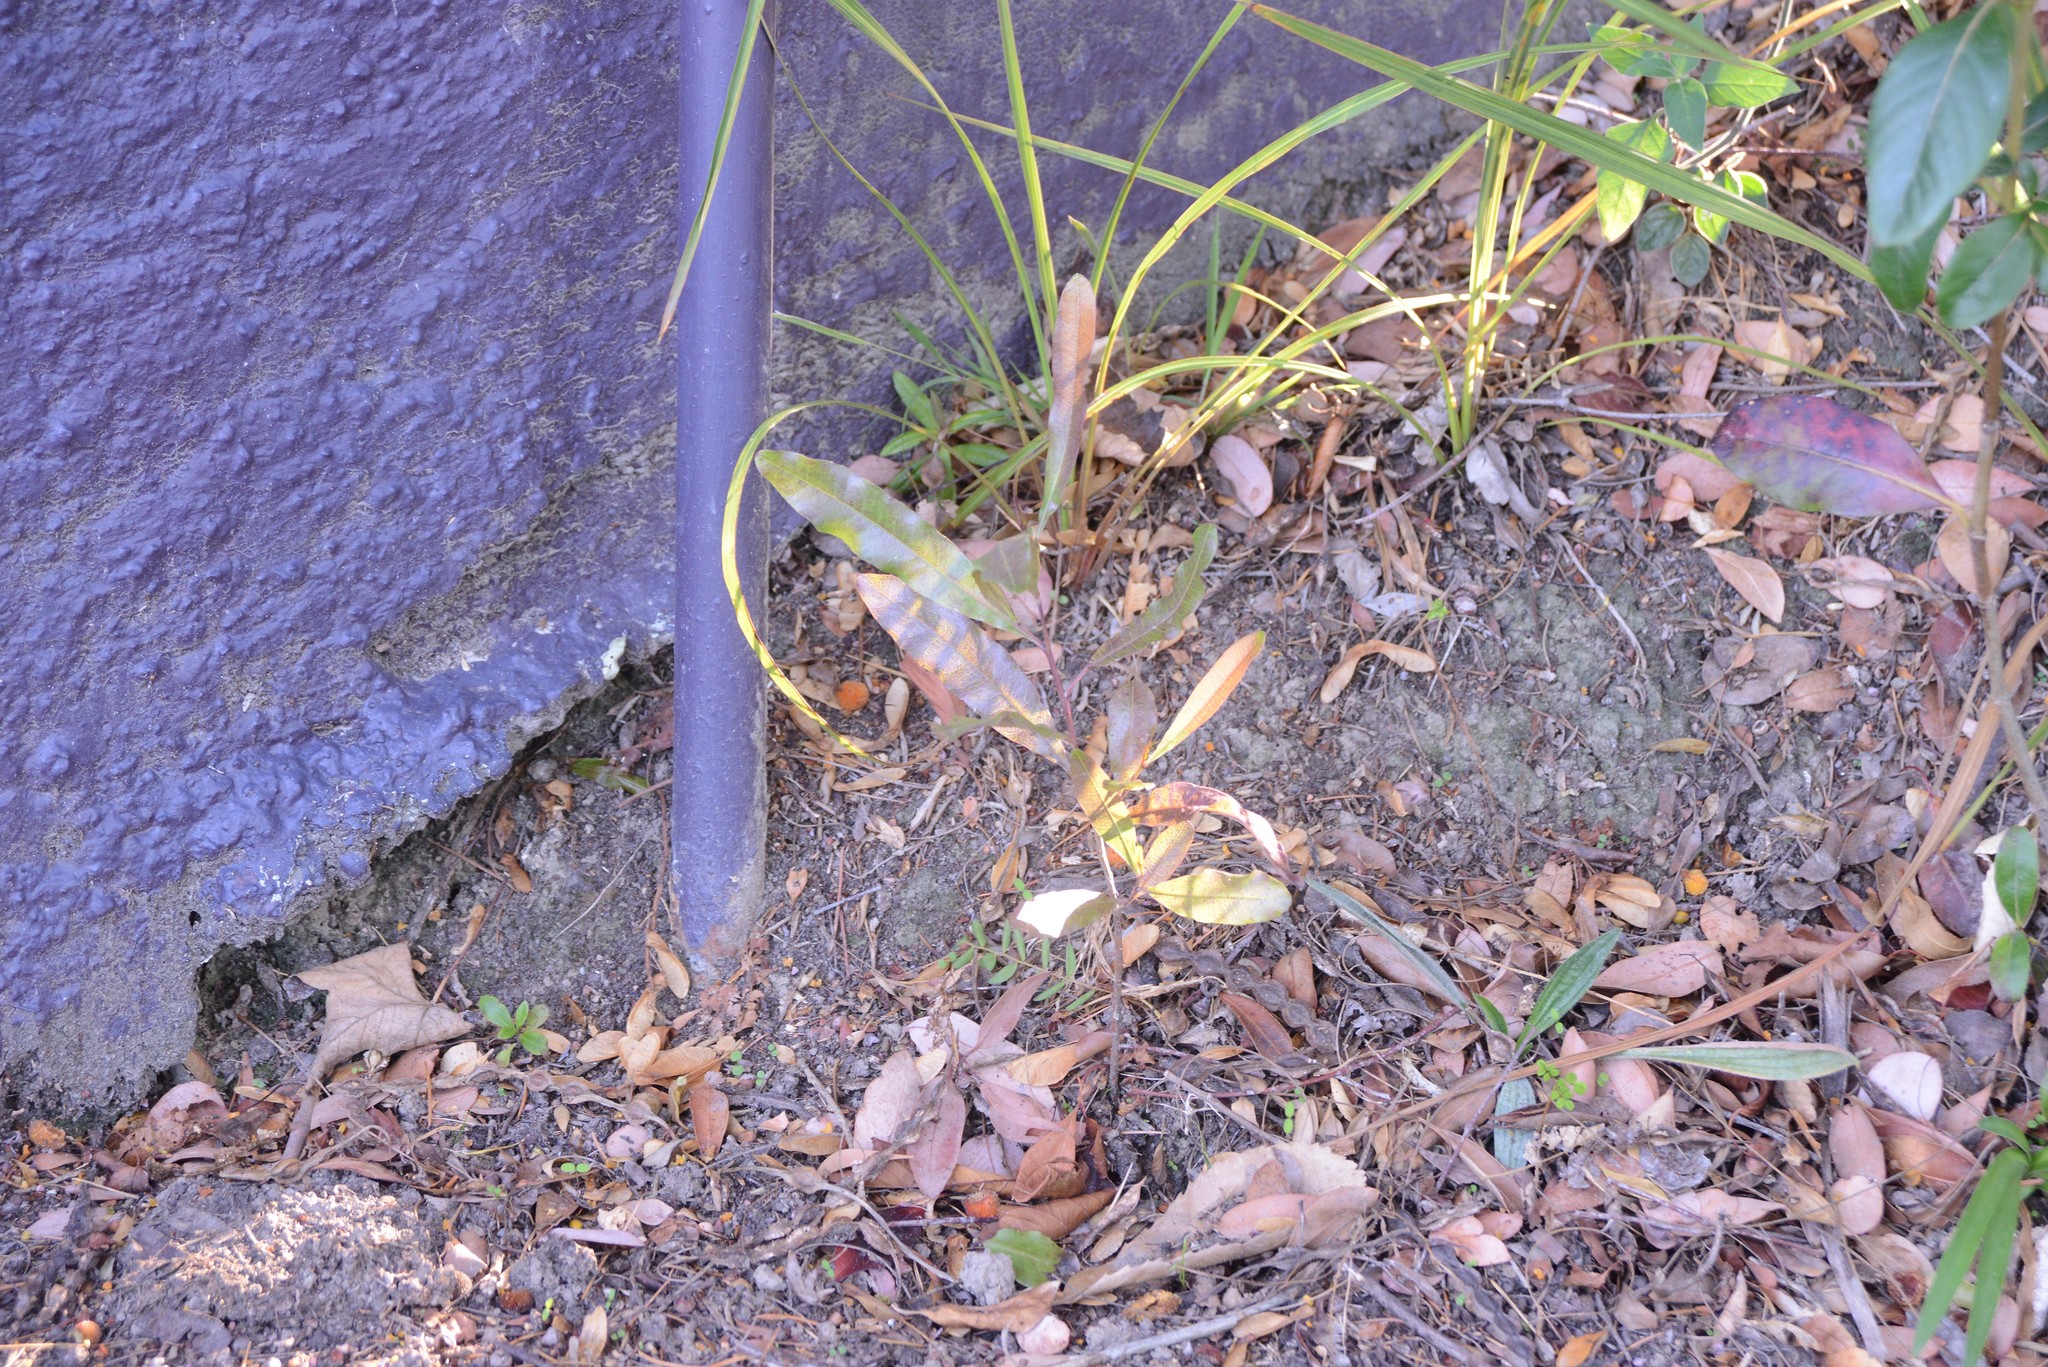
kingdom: Plantae
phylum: Tracheophyta
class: Magnoliopsida
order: Sapindales
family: Sapindaceae
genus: Dodonaea
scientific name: Dodonaea viscosa
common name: Hopbush
